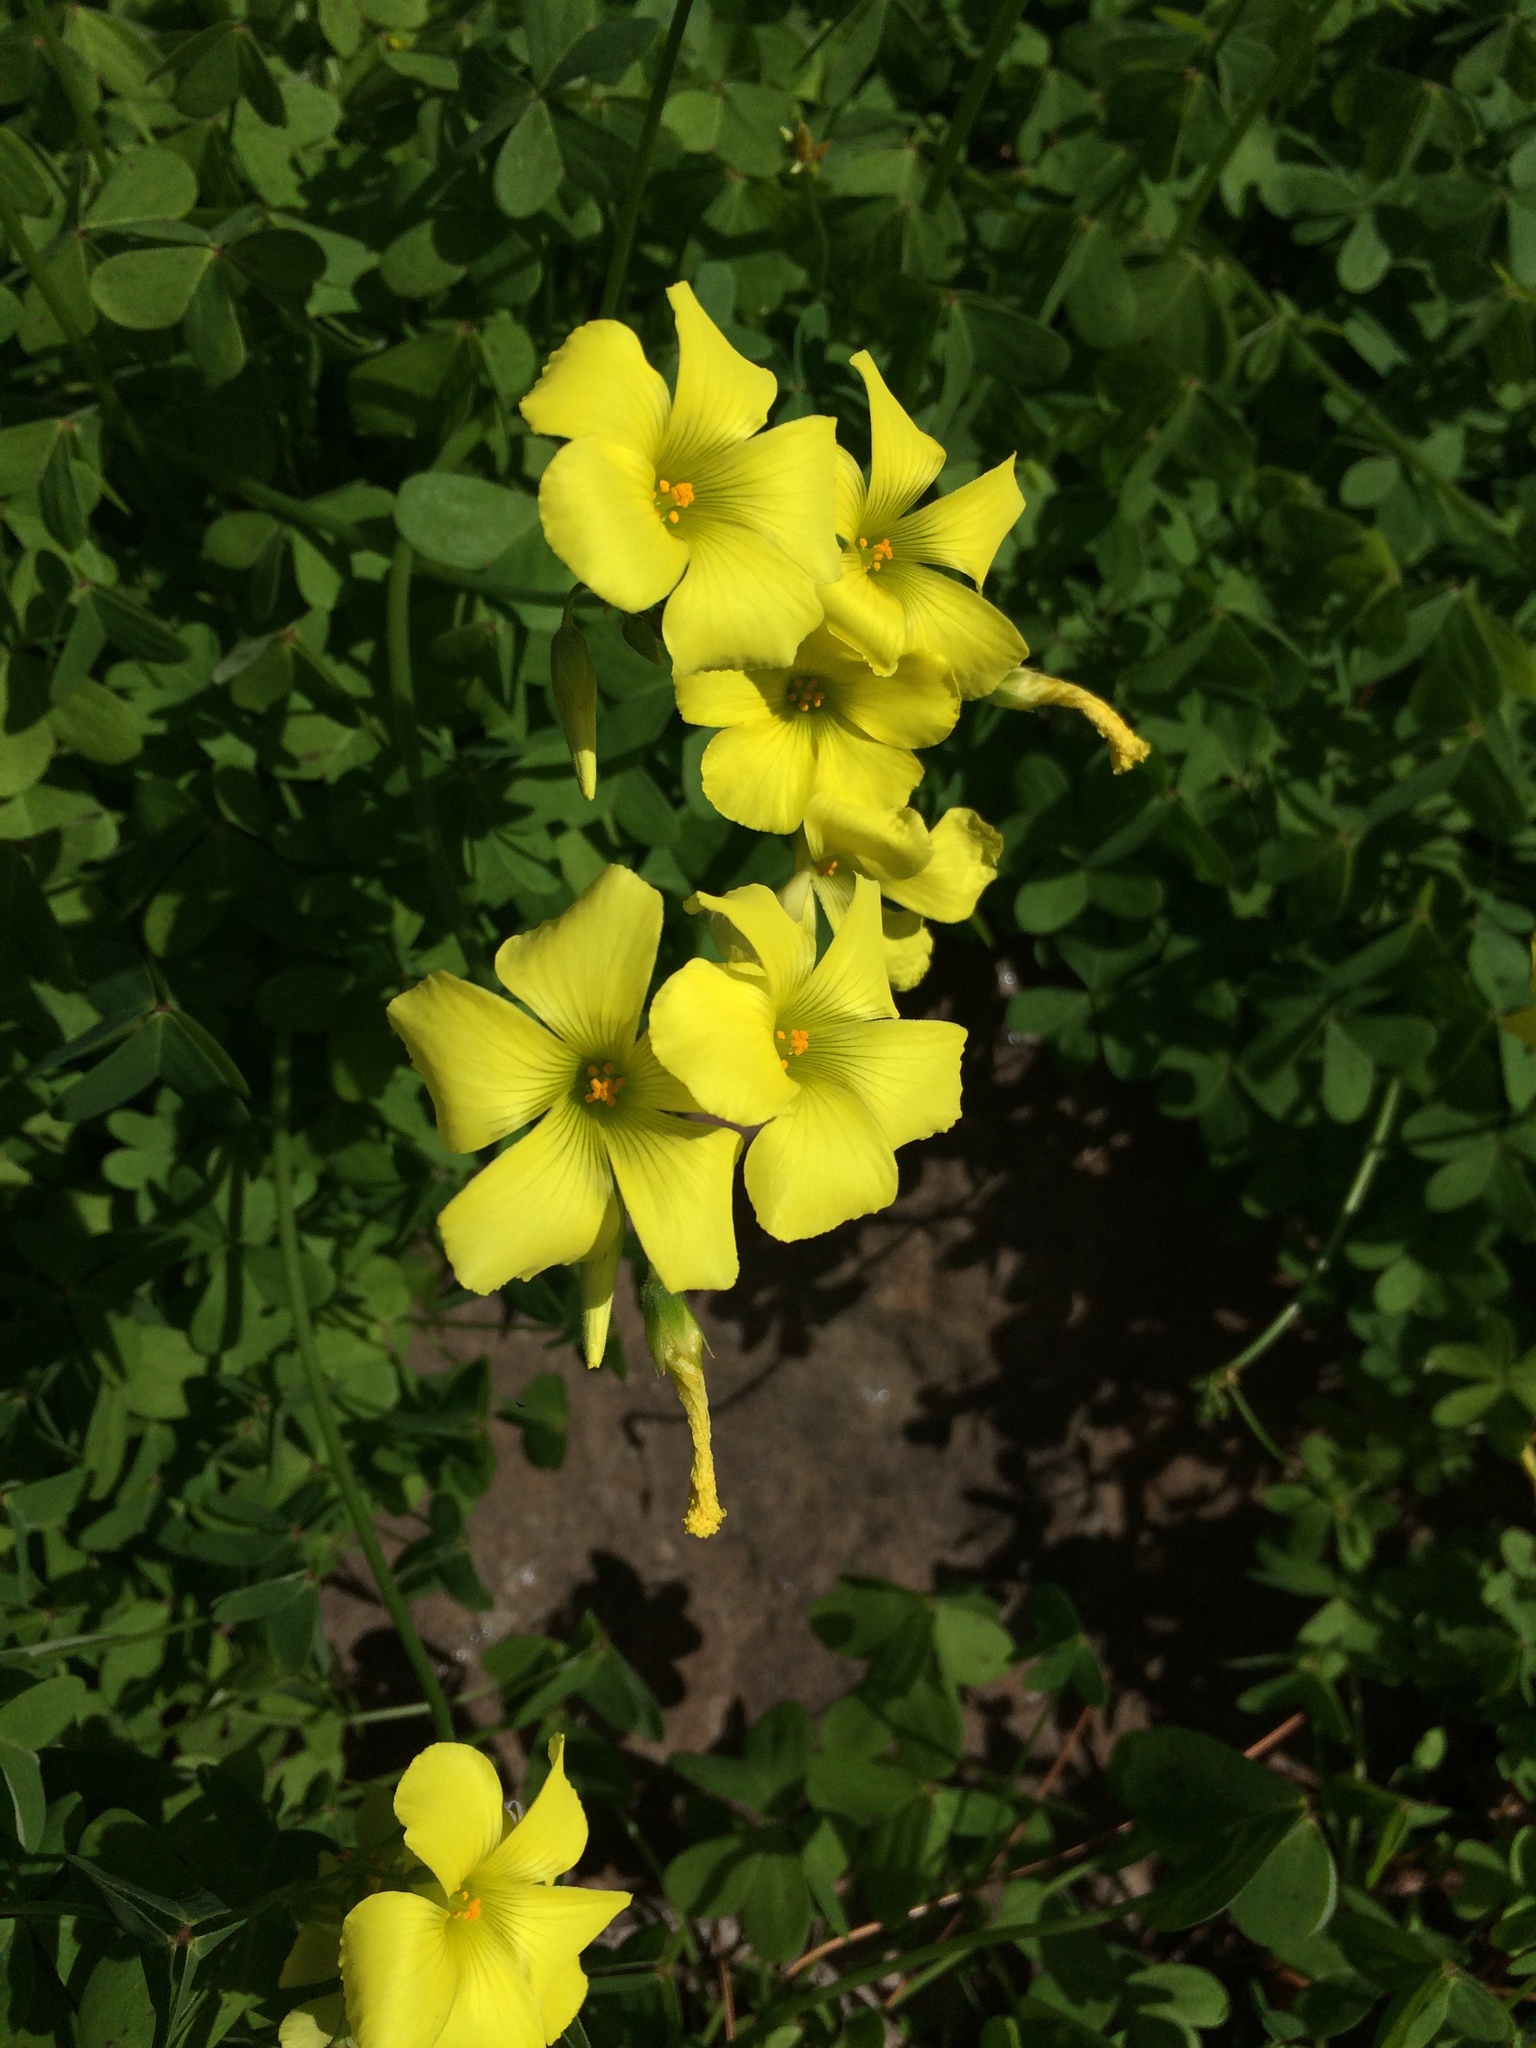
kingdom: Plantae
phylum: Tracheophyta
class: Magnoliopsida
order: Oxalidales
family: Oxalidaceae
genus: Oxalis
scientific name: Oxalis pes-caprae
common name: Bermuda-buttercup
